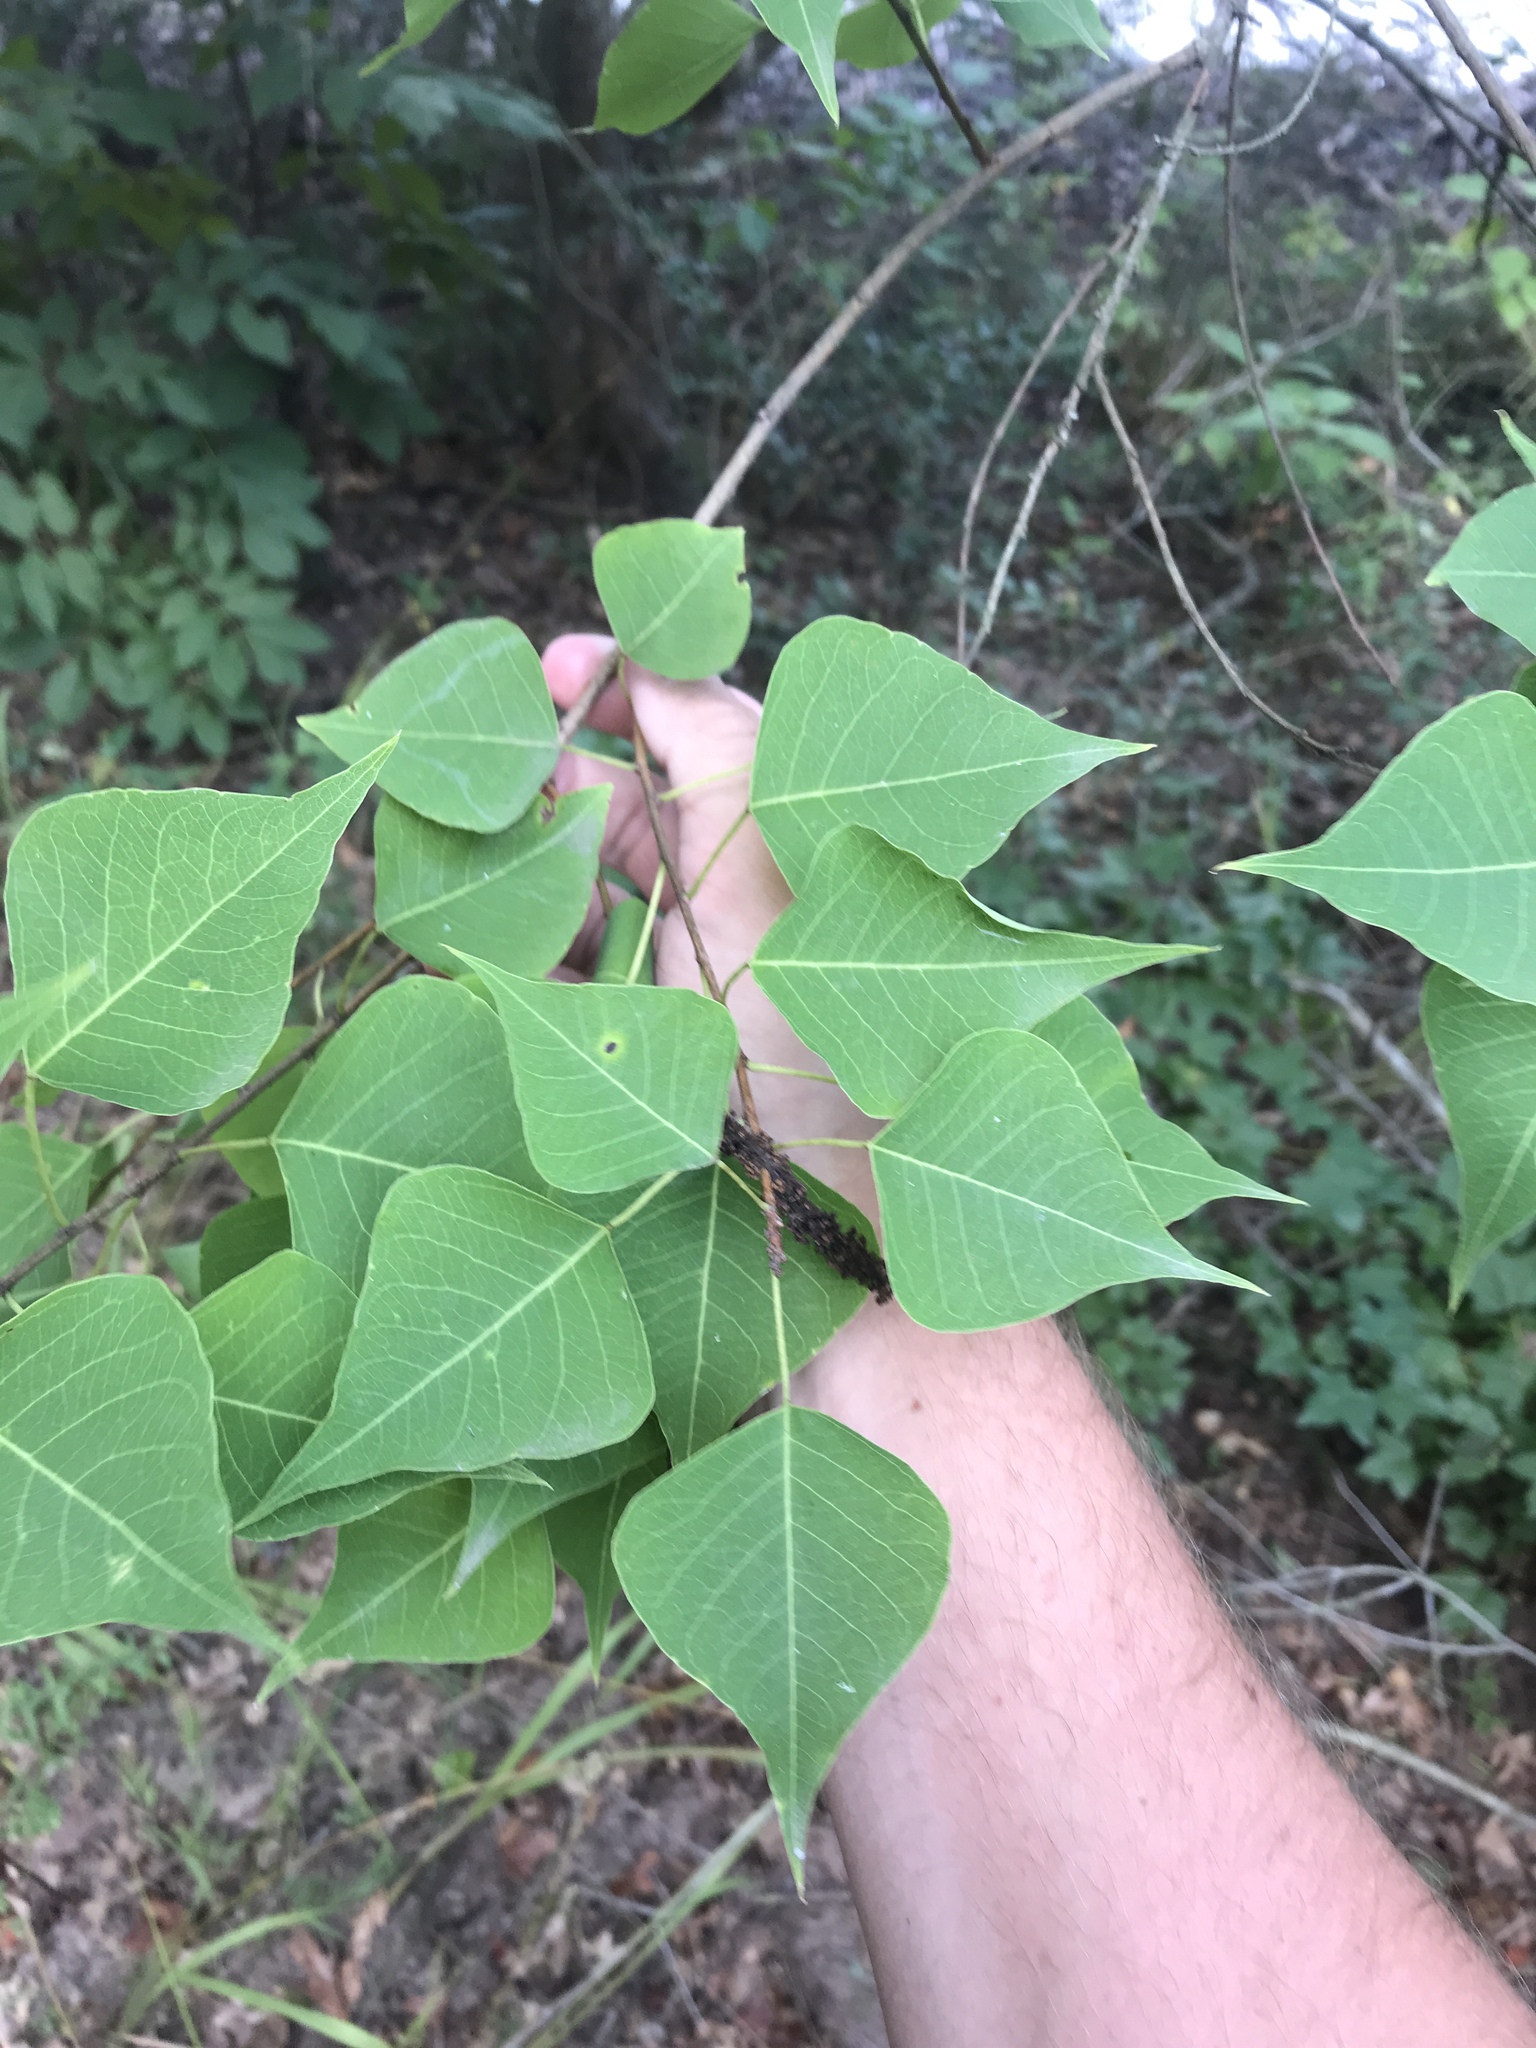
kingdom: Plantae
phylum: Tracheophyta
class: Magnoliopsida
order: Malpighiales
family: Euphorbiaceae
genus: Triadica
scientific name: Triadica sebifera
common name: Chinese tallow
